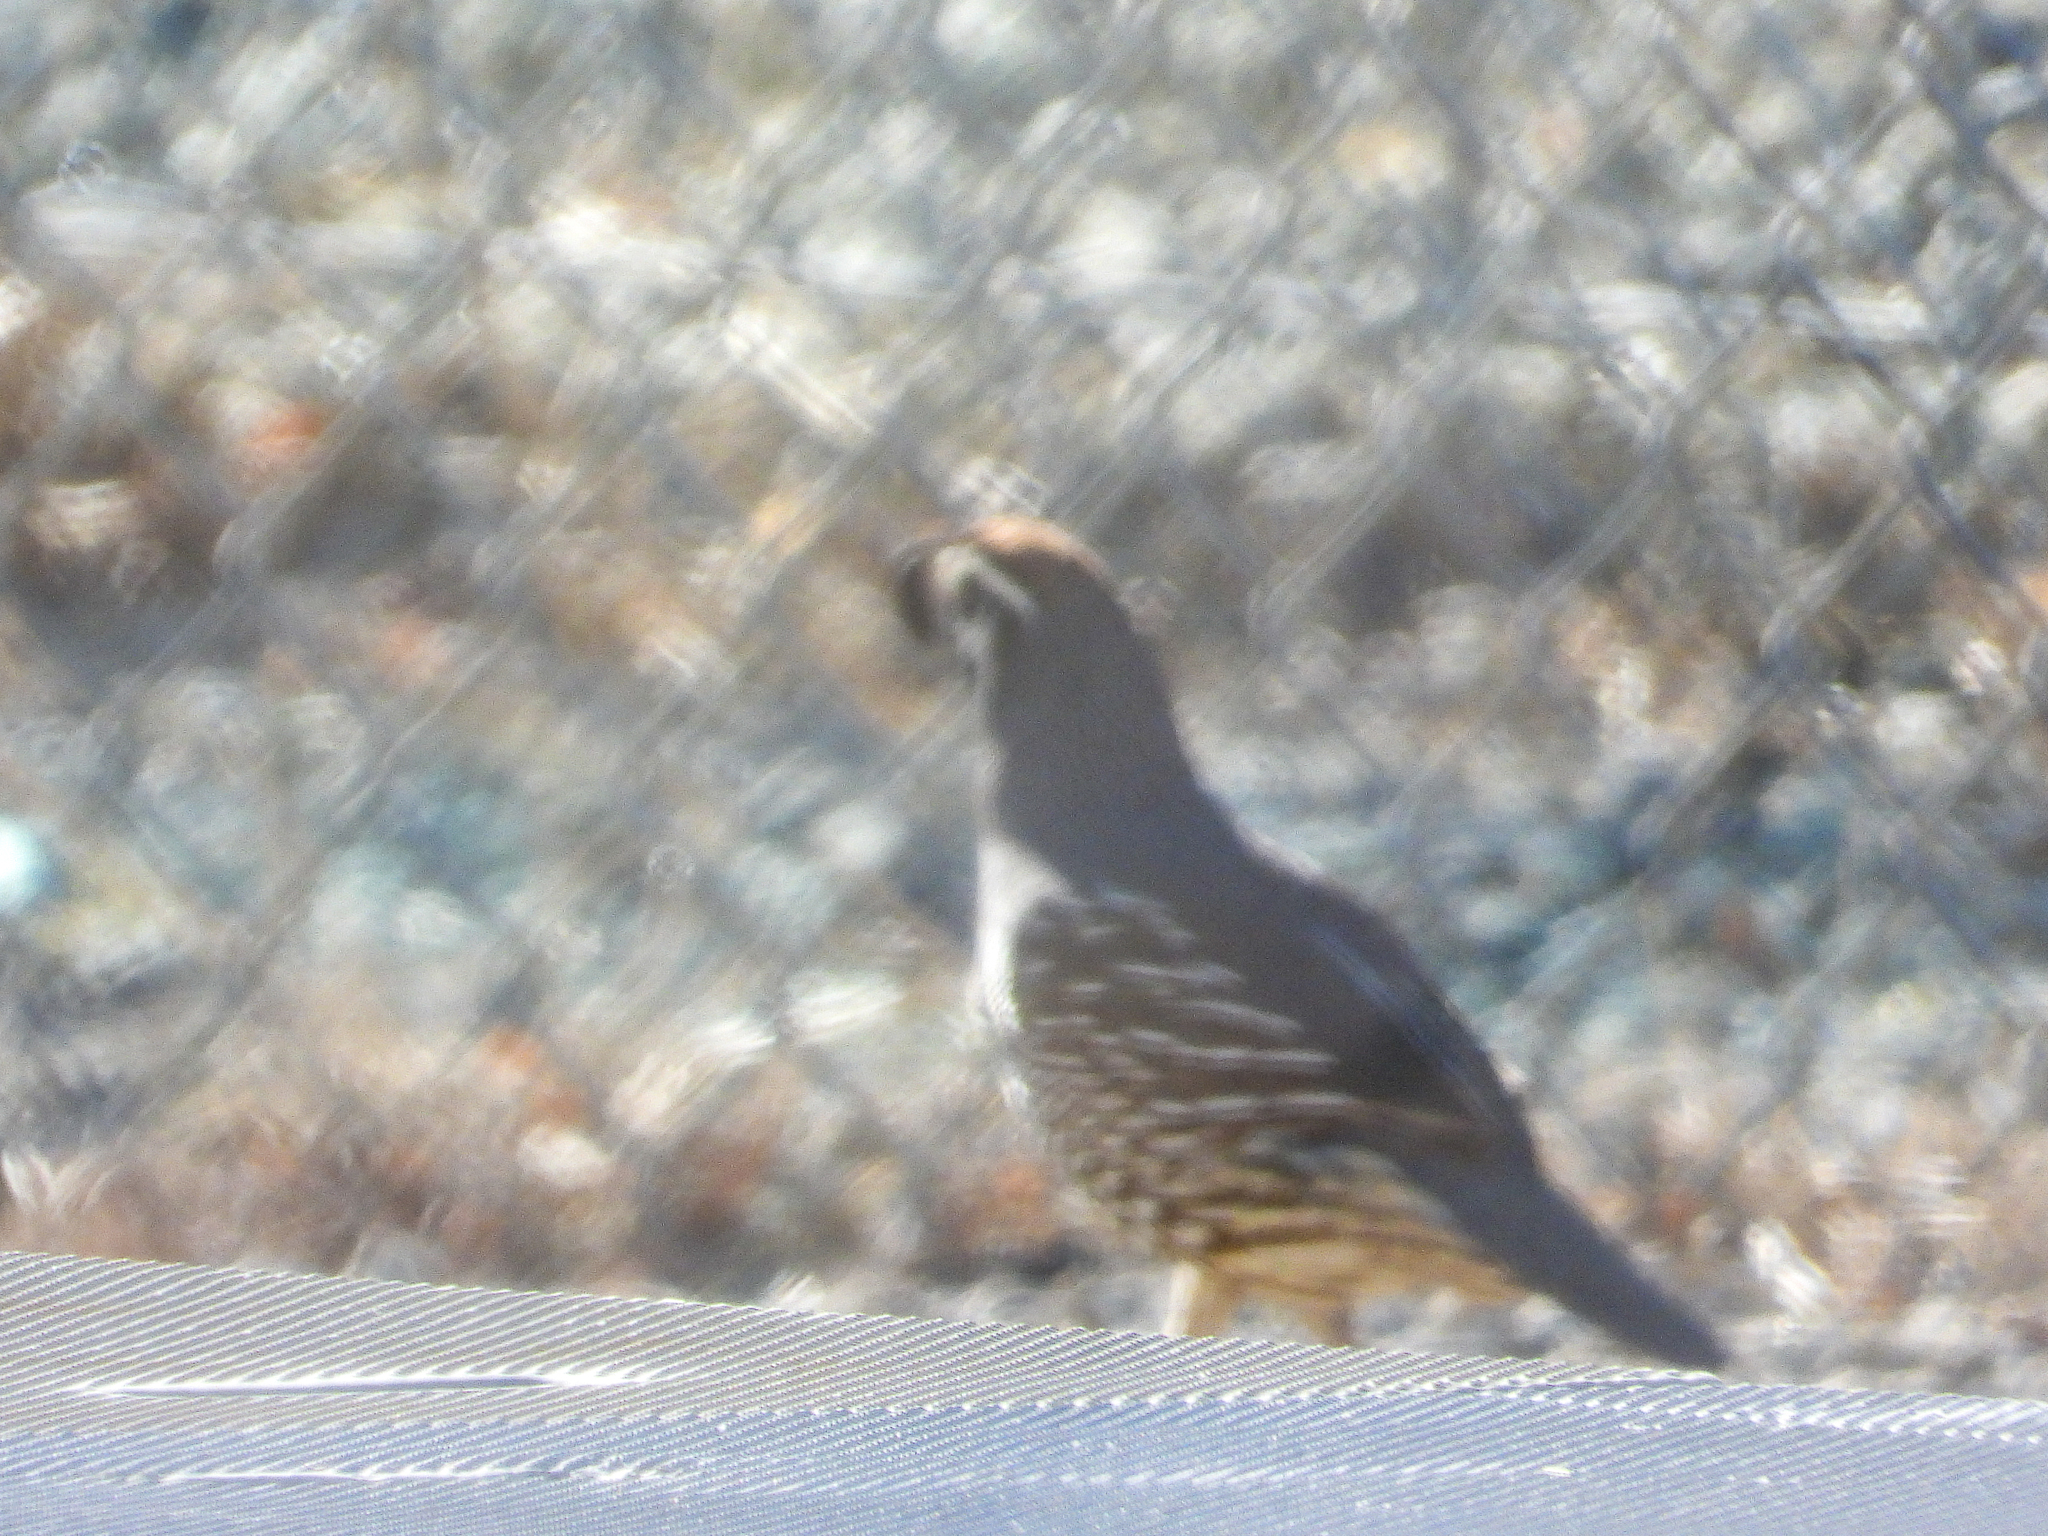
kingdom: Animalia
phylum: Chordata
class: Aves
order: Galliformes
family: Odontophoridae
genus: Callipepla
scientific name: Callipepla californica
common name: California quail
